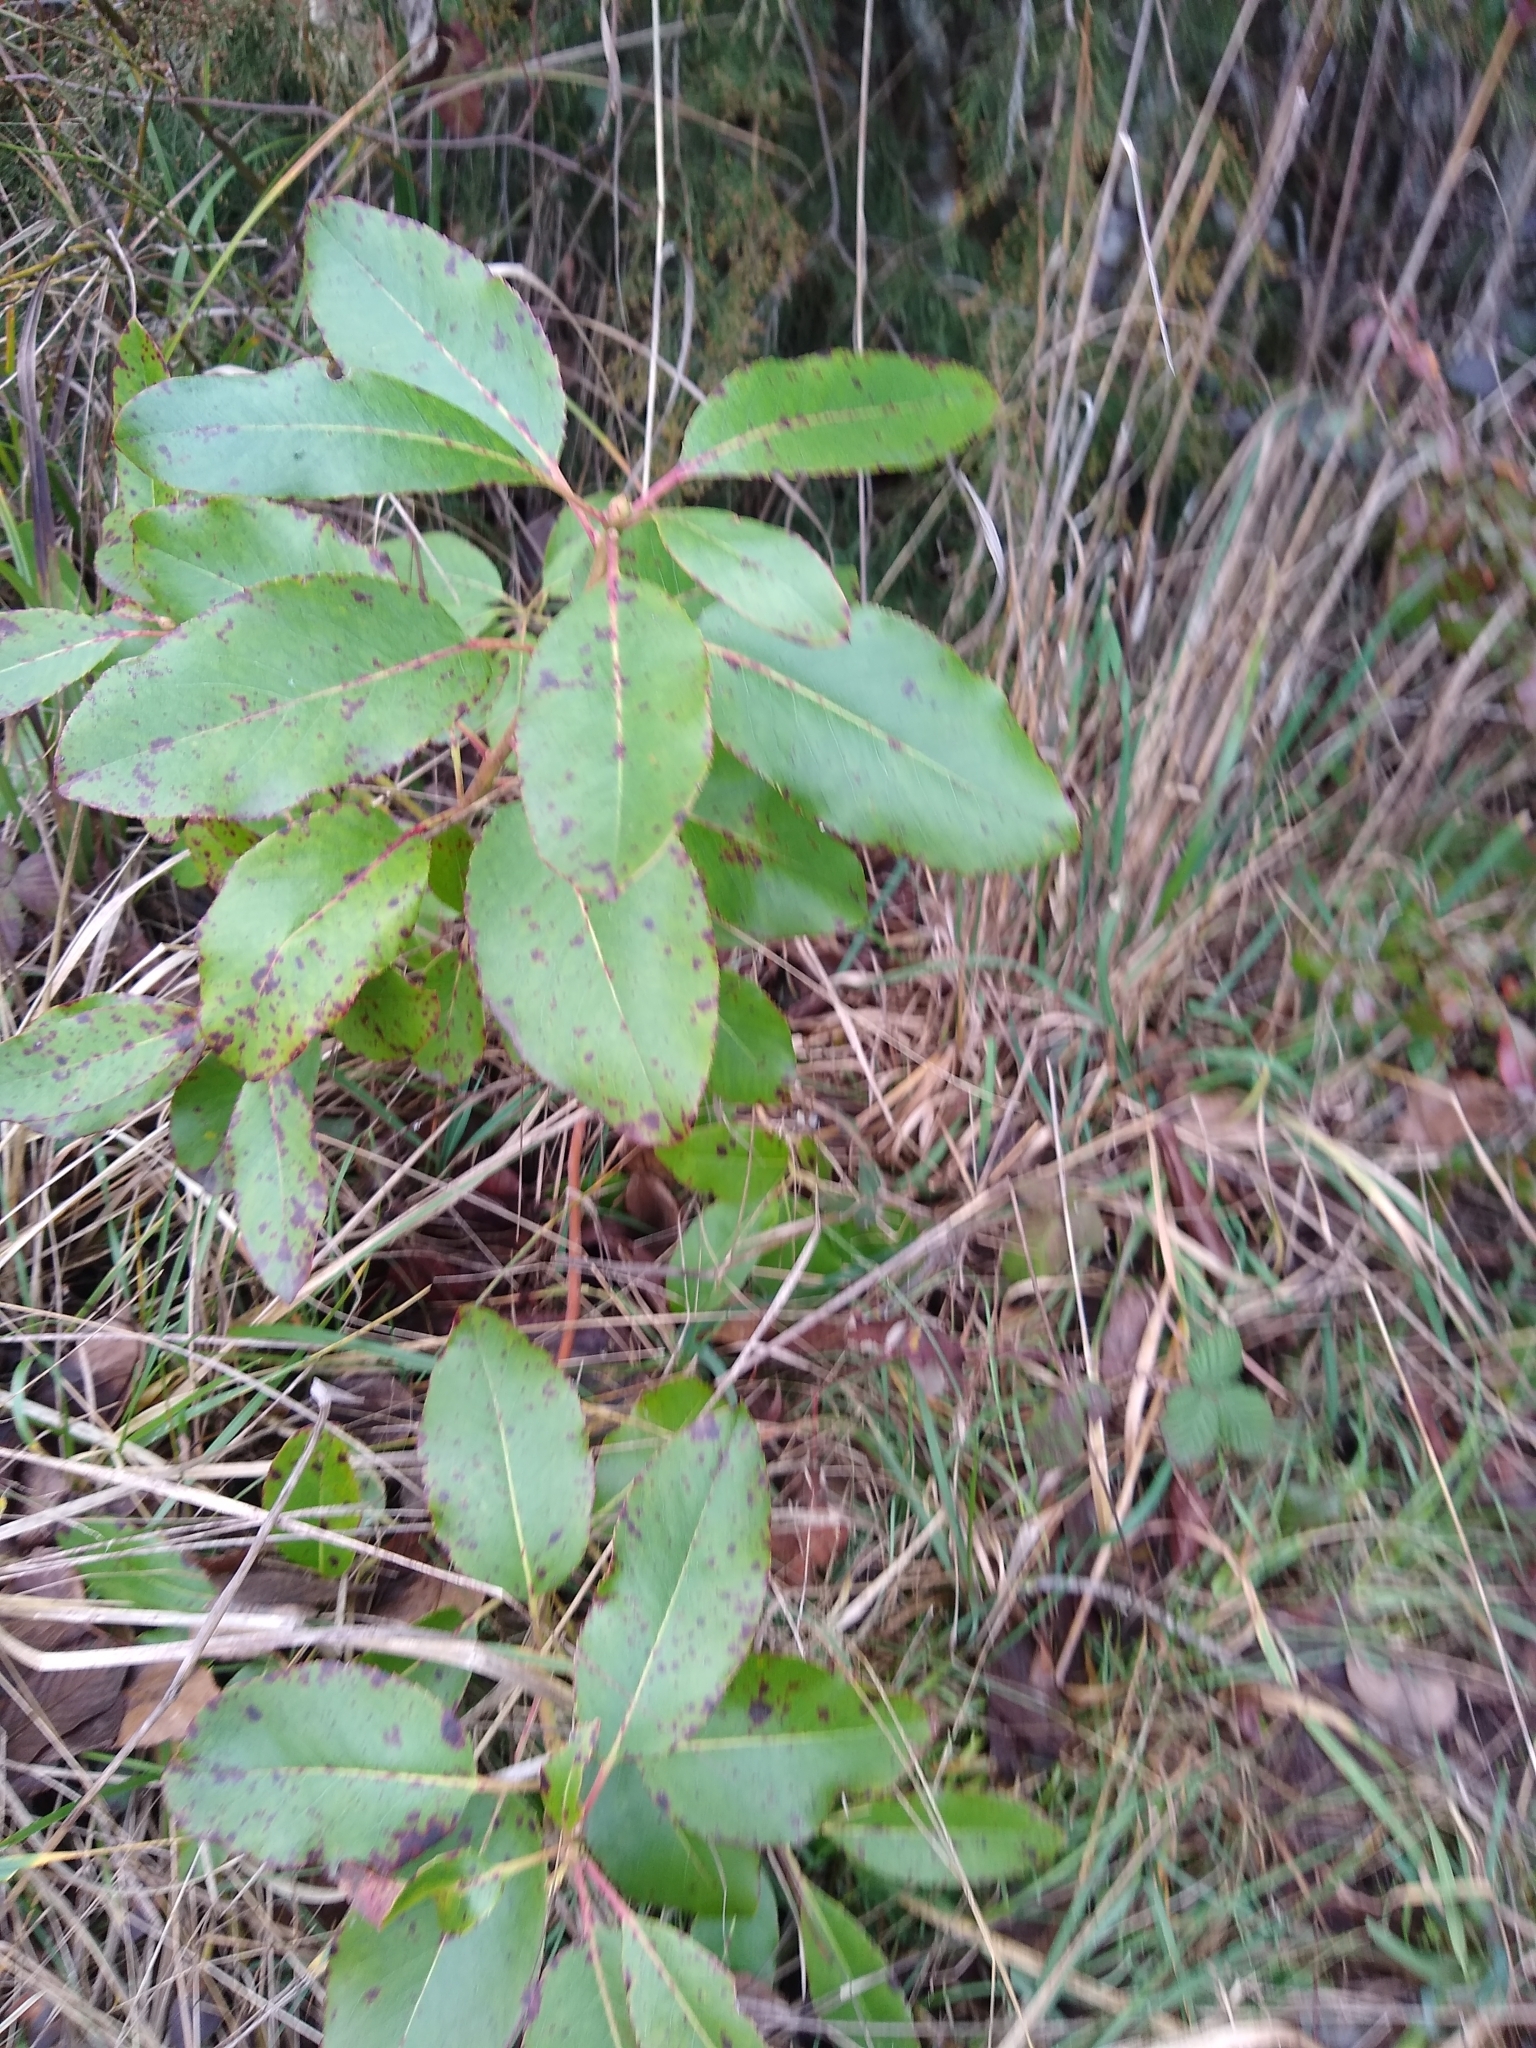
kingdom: Plantae
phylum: Tracheophyta
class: Magnoliopsida
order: Ericales
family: Ericaceae
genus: Arbutus
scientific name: Arbutus menziesii
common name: Pacific madrone
